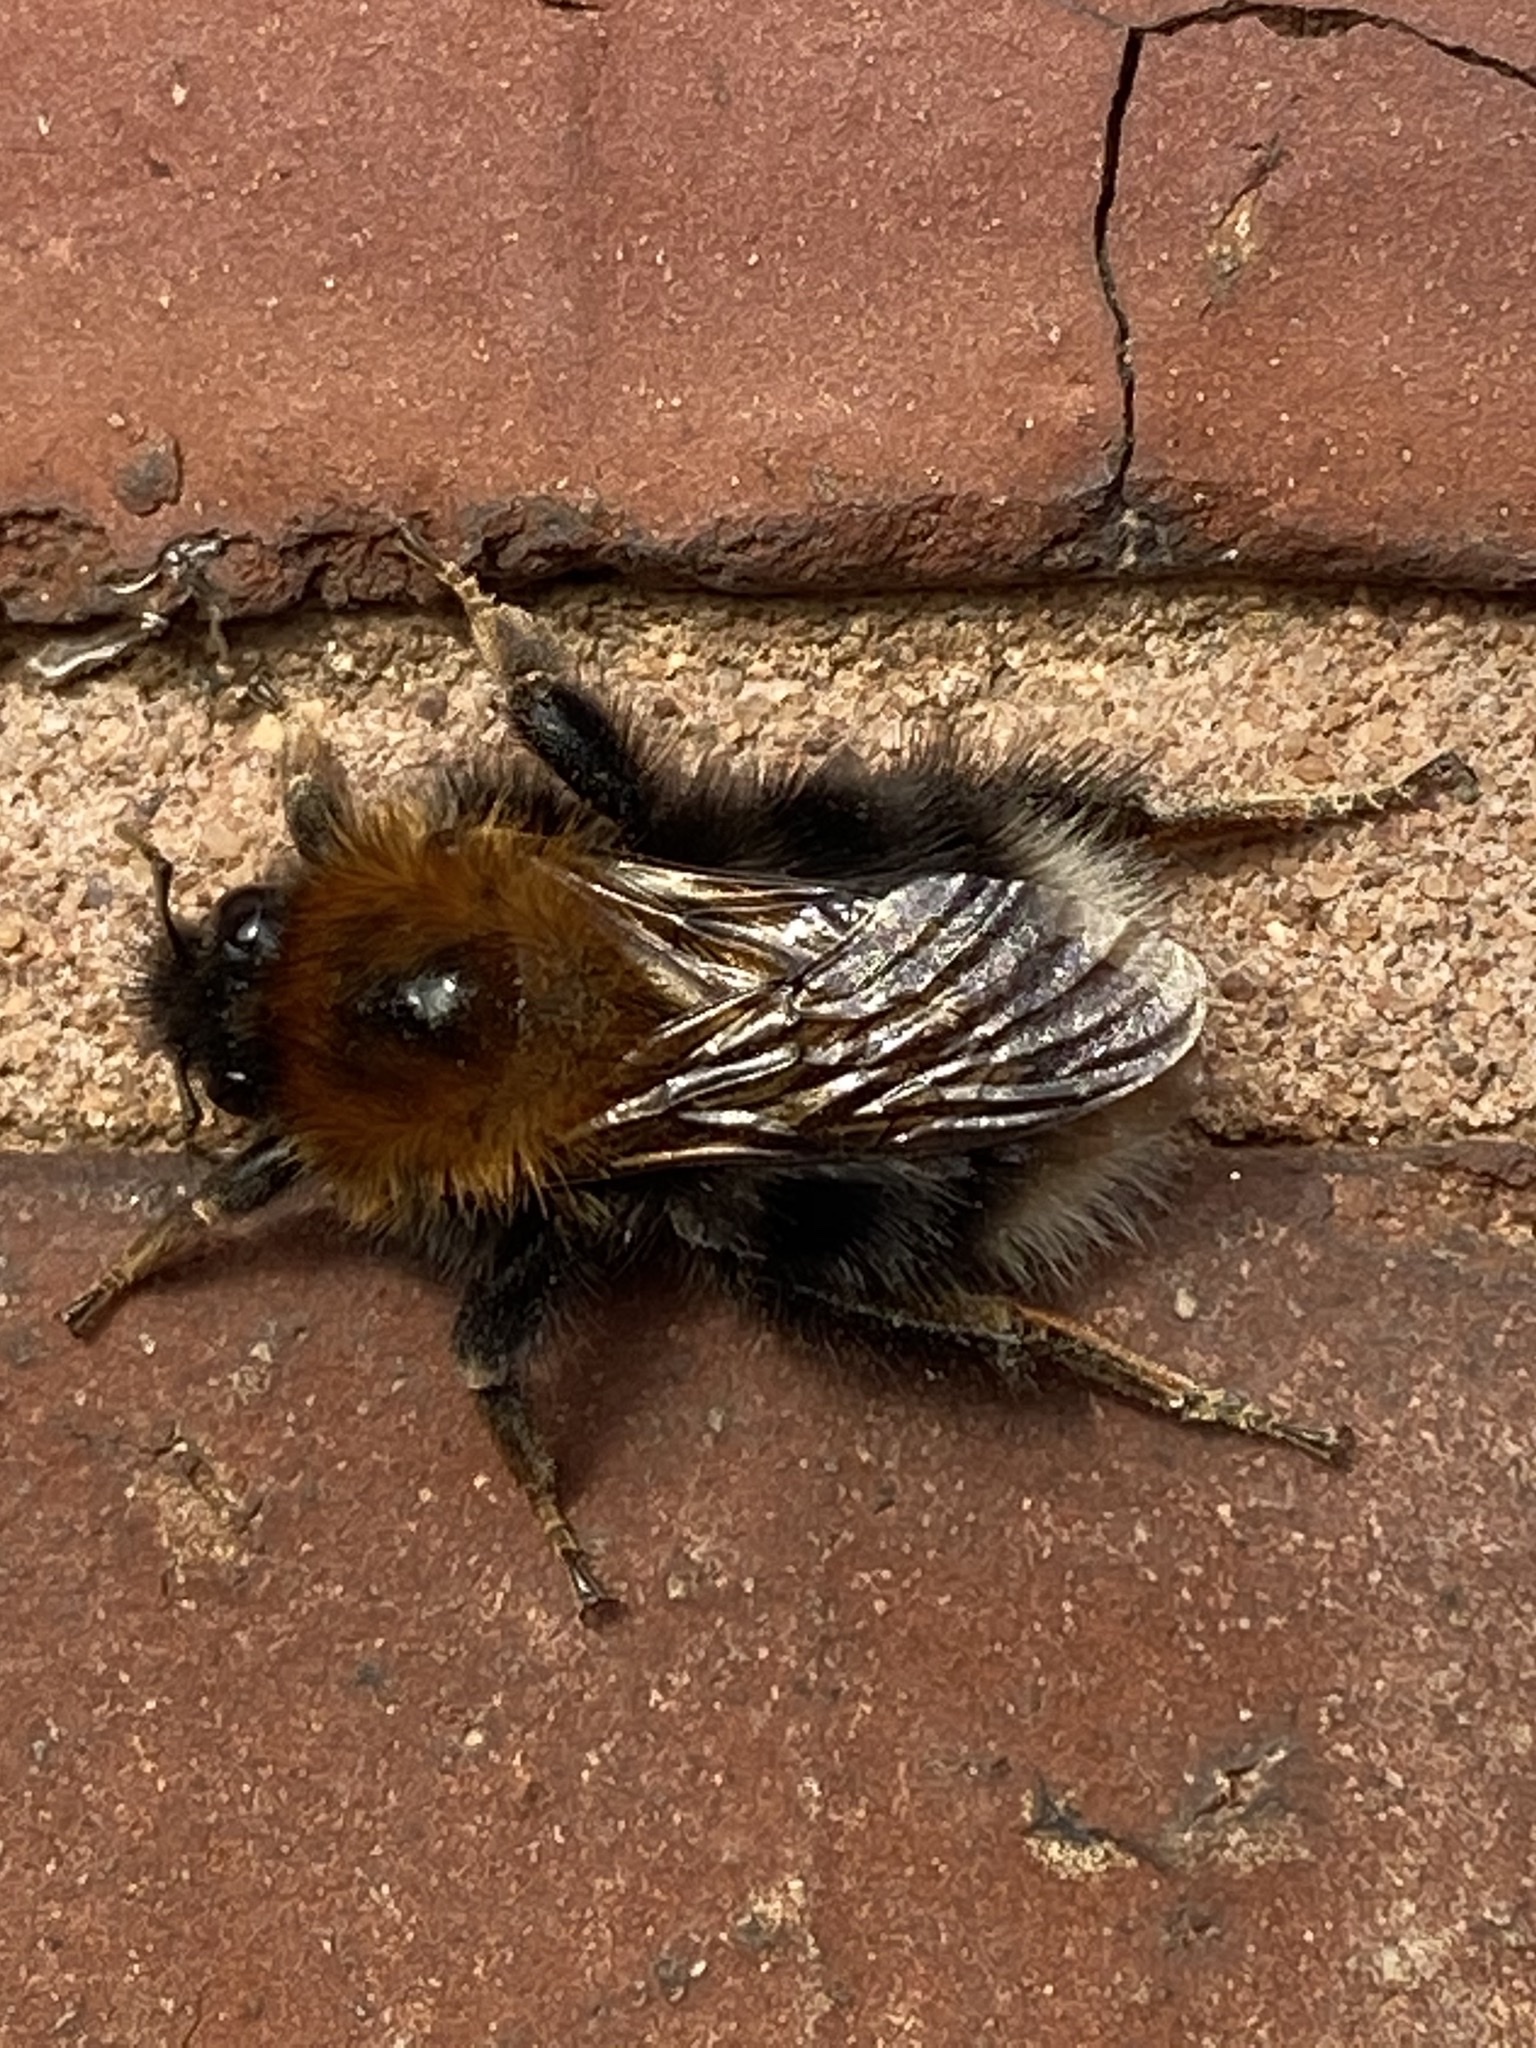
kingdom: Animalia
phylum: Arthropoda
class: Insecta
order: Hymenoptera
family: Apidae
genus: Bombus
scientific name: Bombus hypnorum
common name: New garden bumblebee
